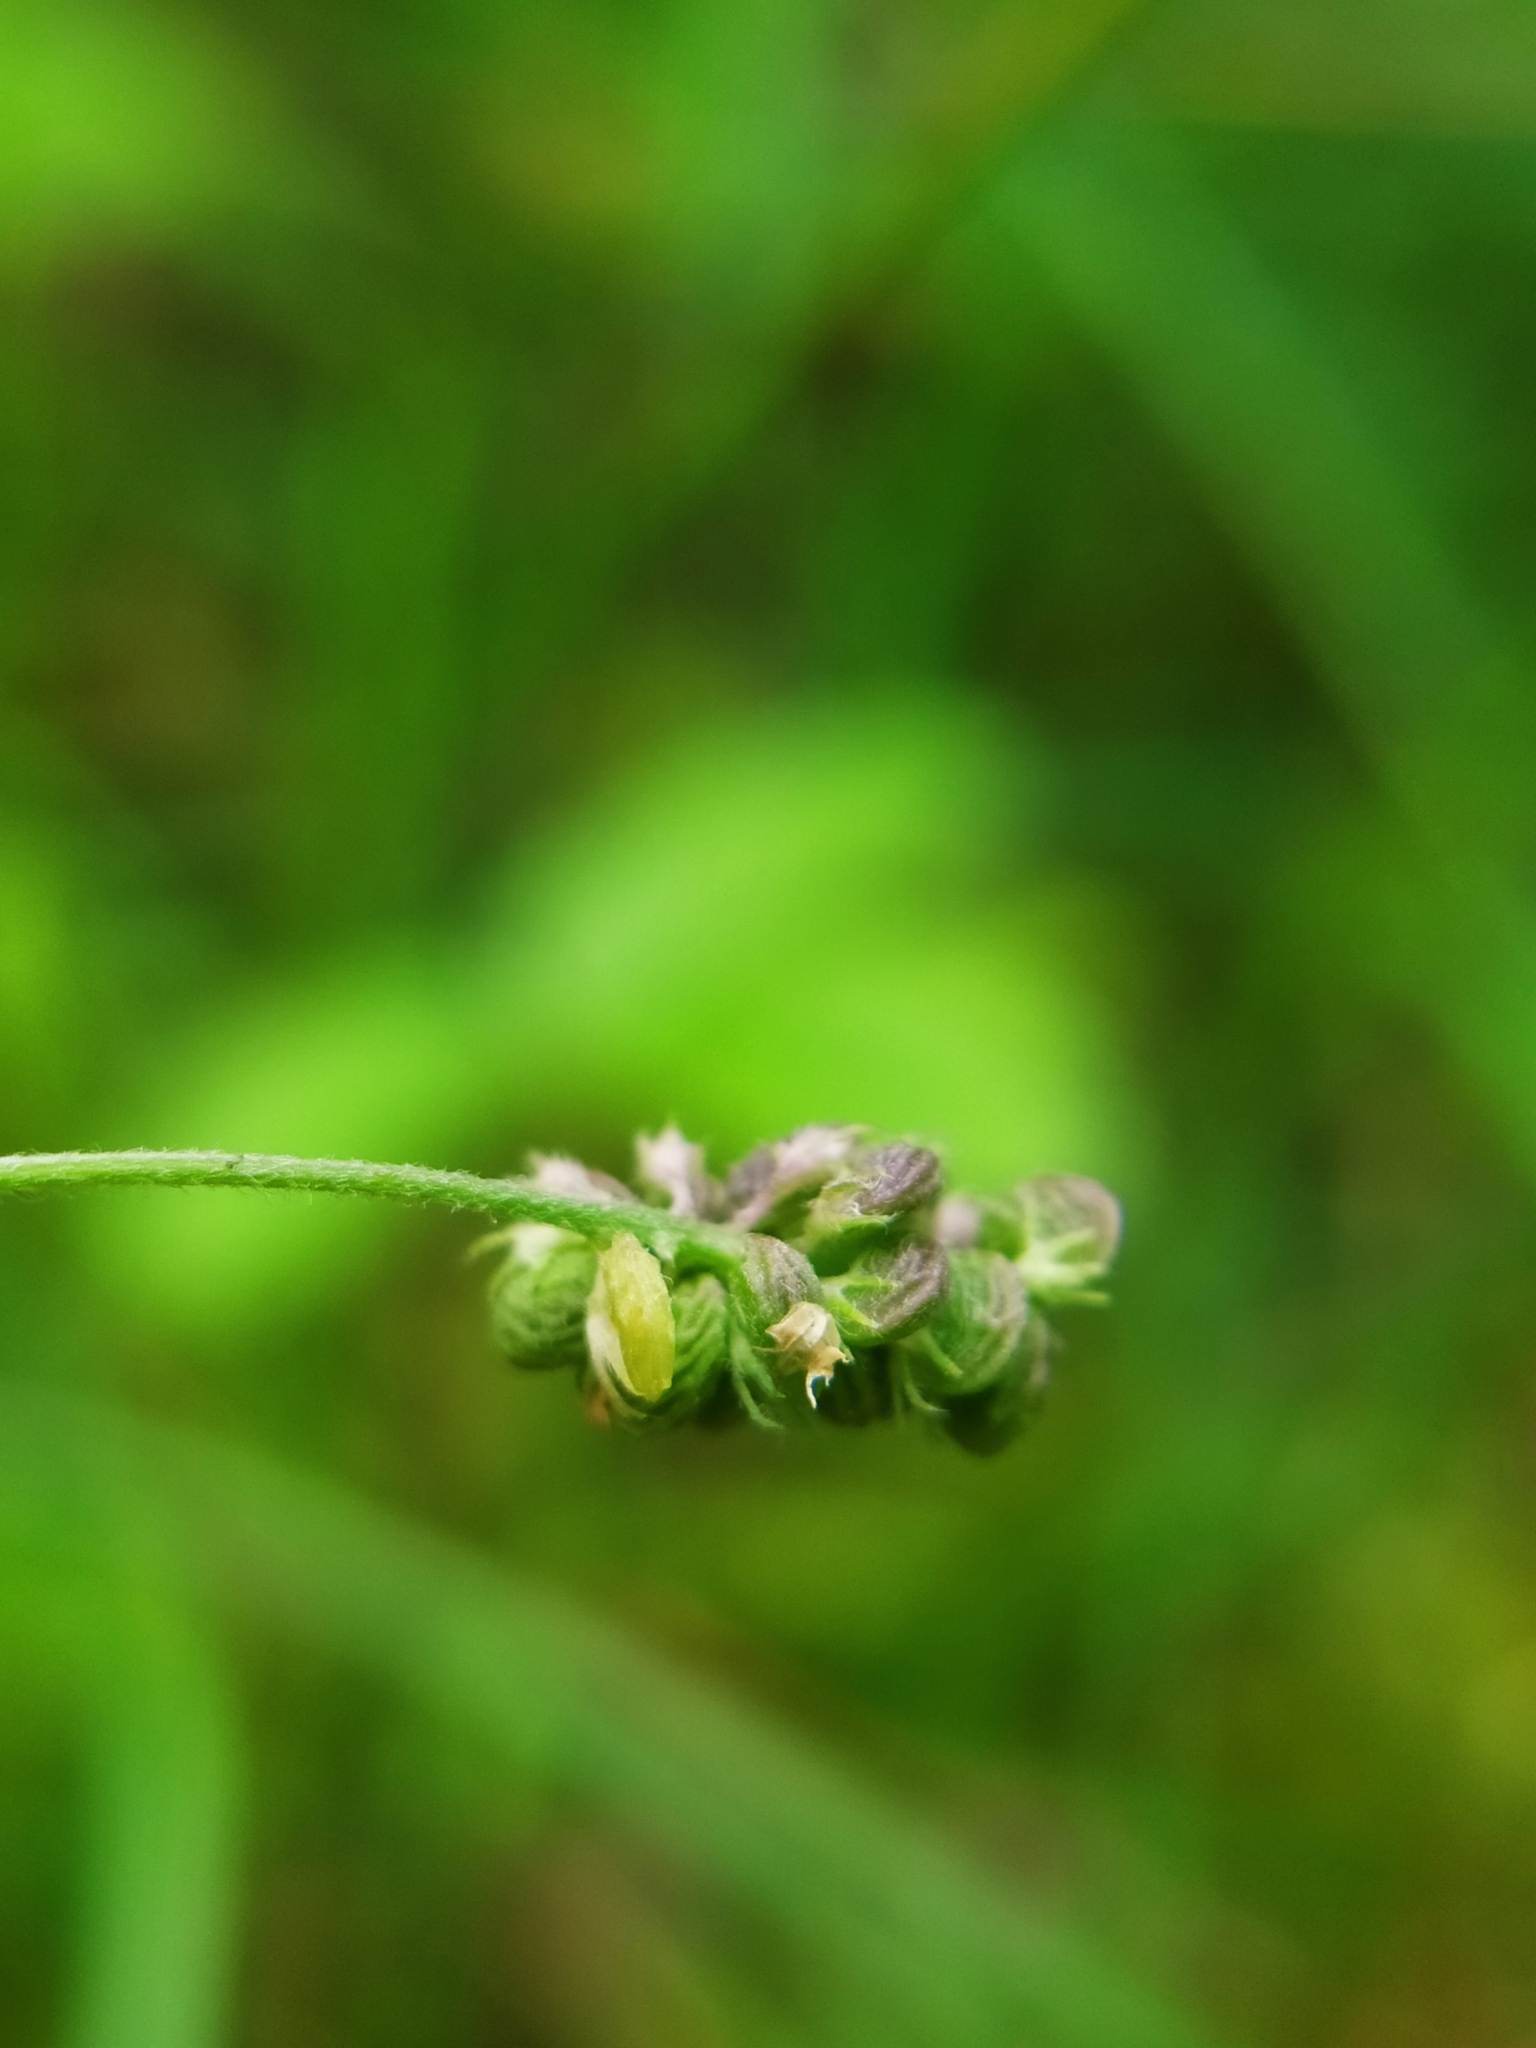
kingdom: Plantae
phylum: Tracheophyta
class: Magnoliopsida
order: Fabales
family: Fabaceae
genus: Medicago
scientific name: Medicago lupulina
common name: Black medick
